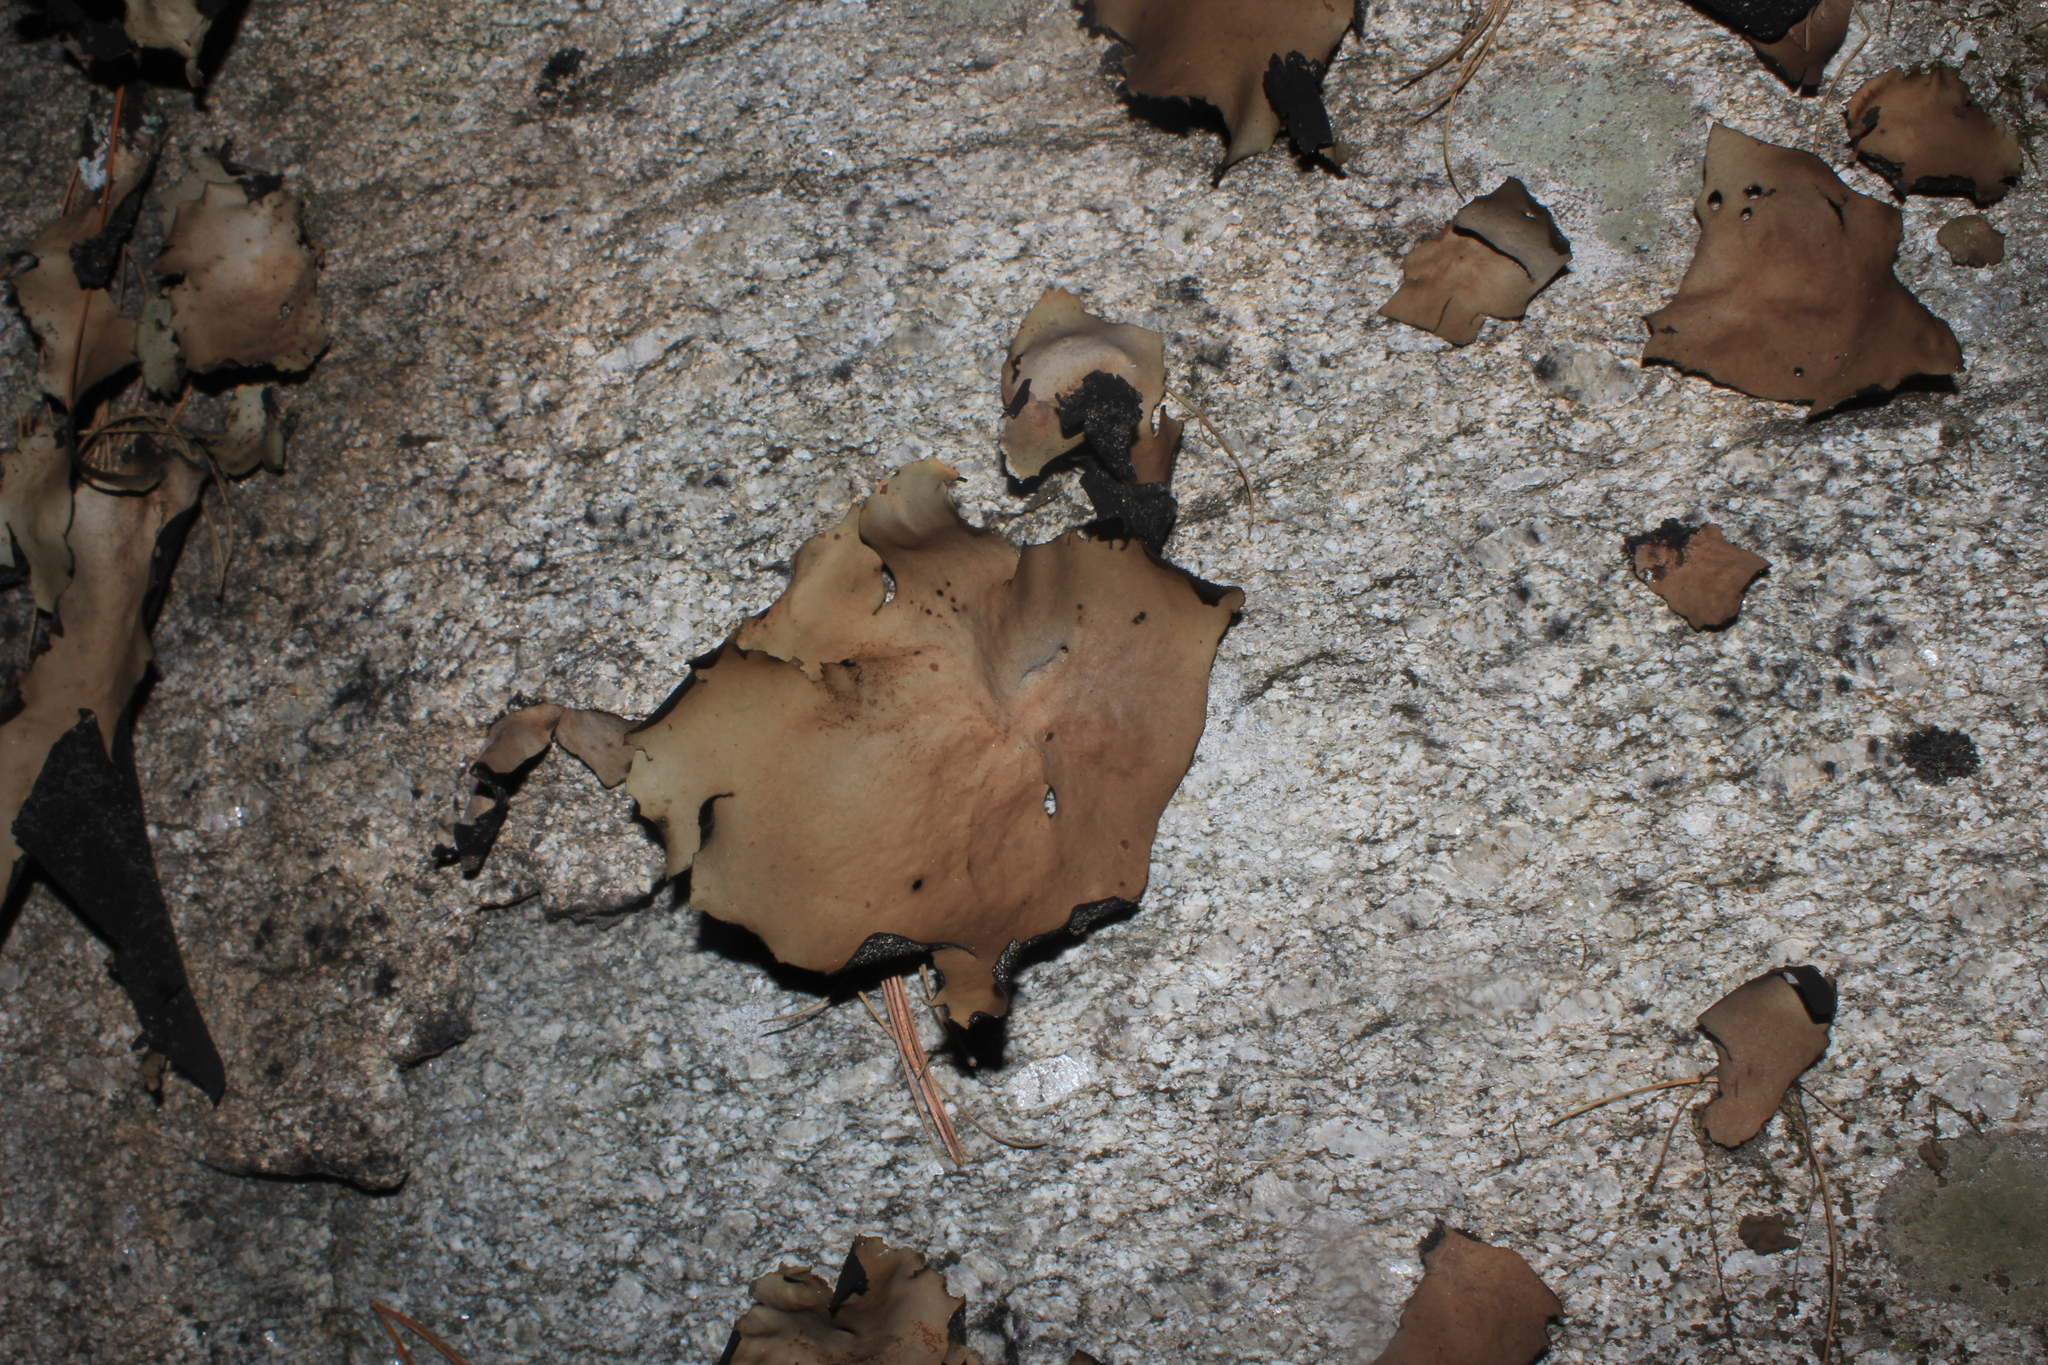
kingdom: Fungi
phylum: Ascomycota
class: Lecanoromycetes
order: Umbilicariales
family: Umbilicariaceae
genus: Umbilicaria
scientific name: Umbilicaria mammulata
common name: Smooth rock tripe
